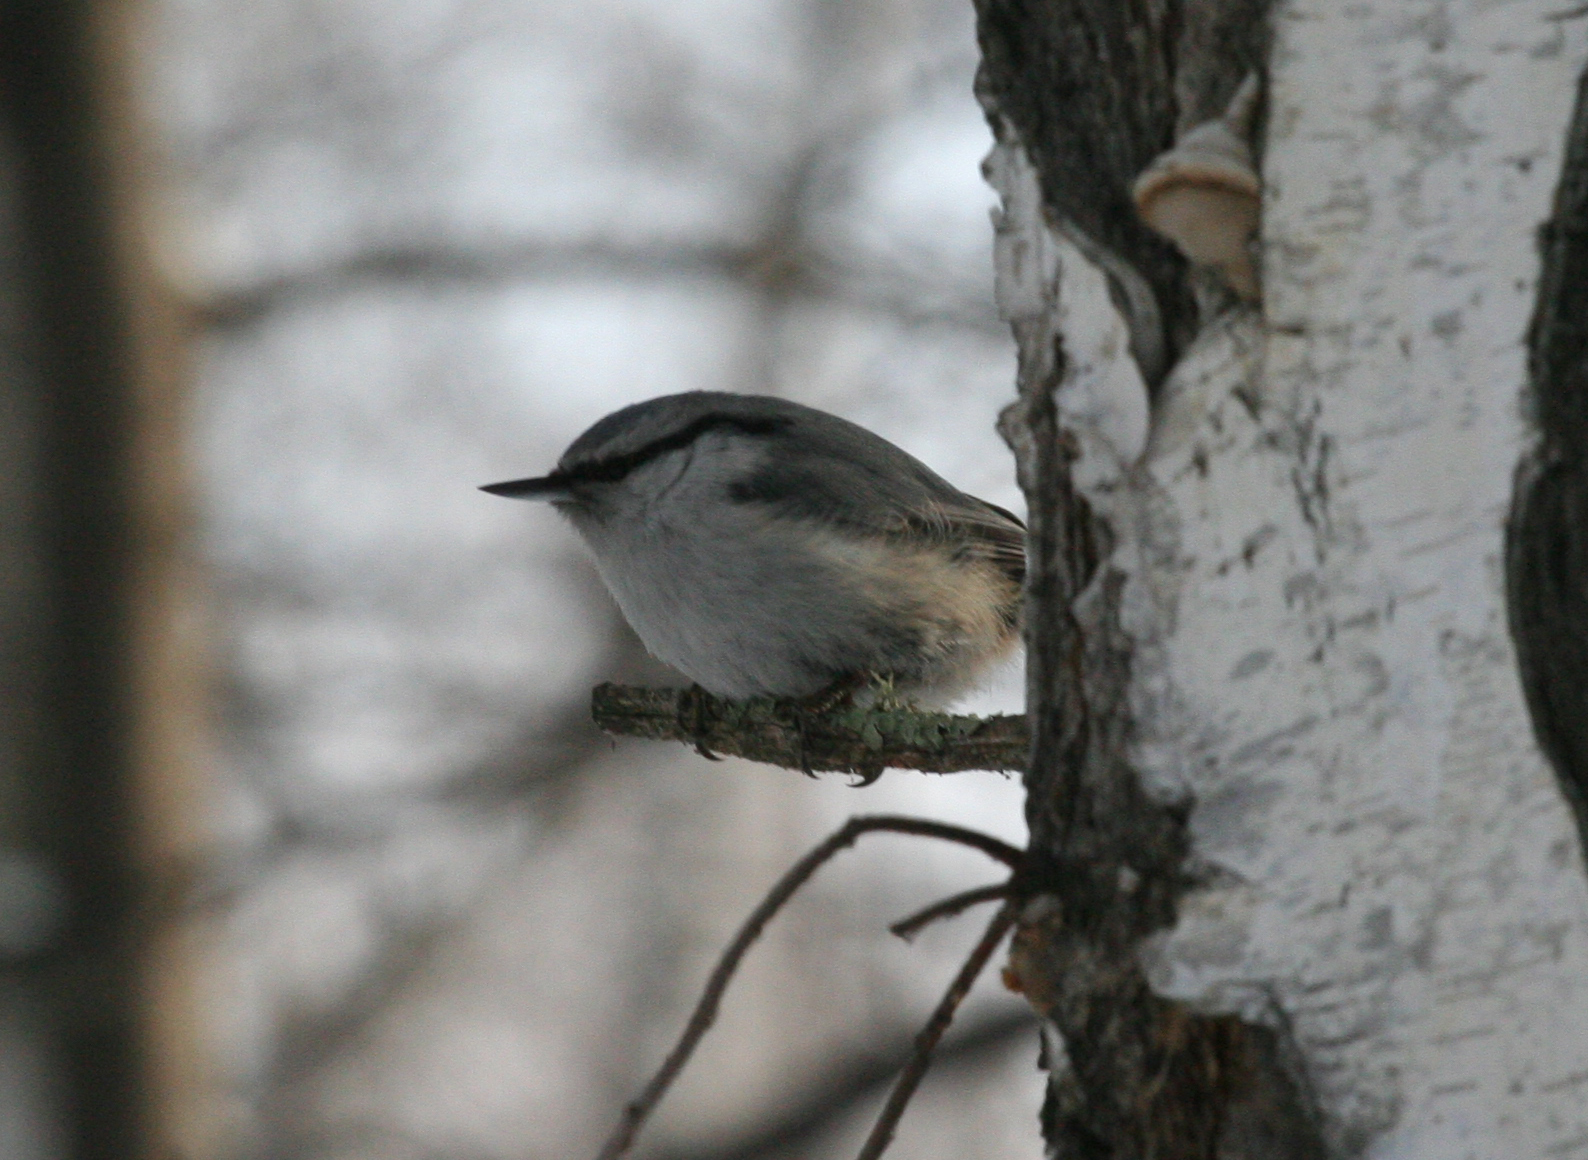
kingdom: Animalia
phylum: Chordata
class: Aves
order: Passeriformes
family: Sittidae
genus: Sitta
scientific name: Sitta europaea
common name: Eurasian nuthatch
